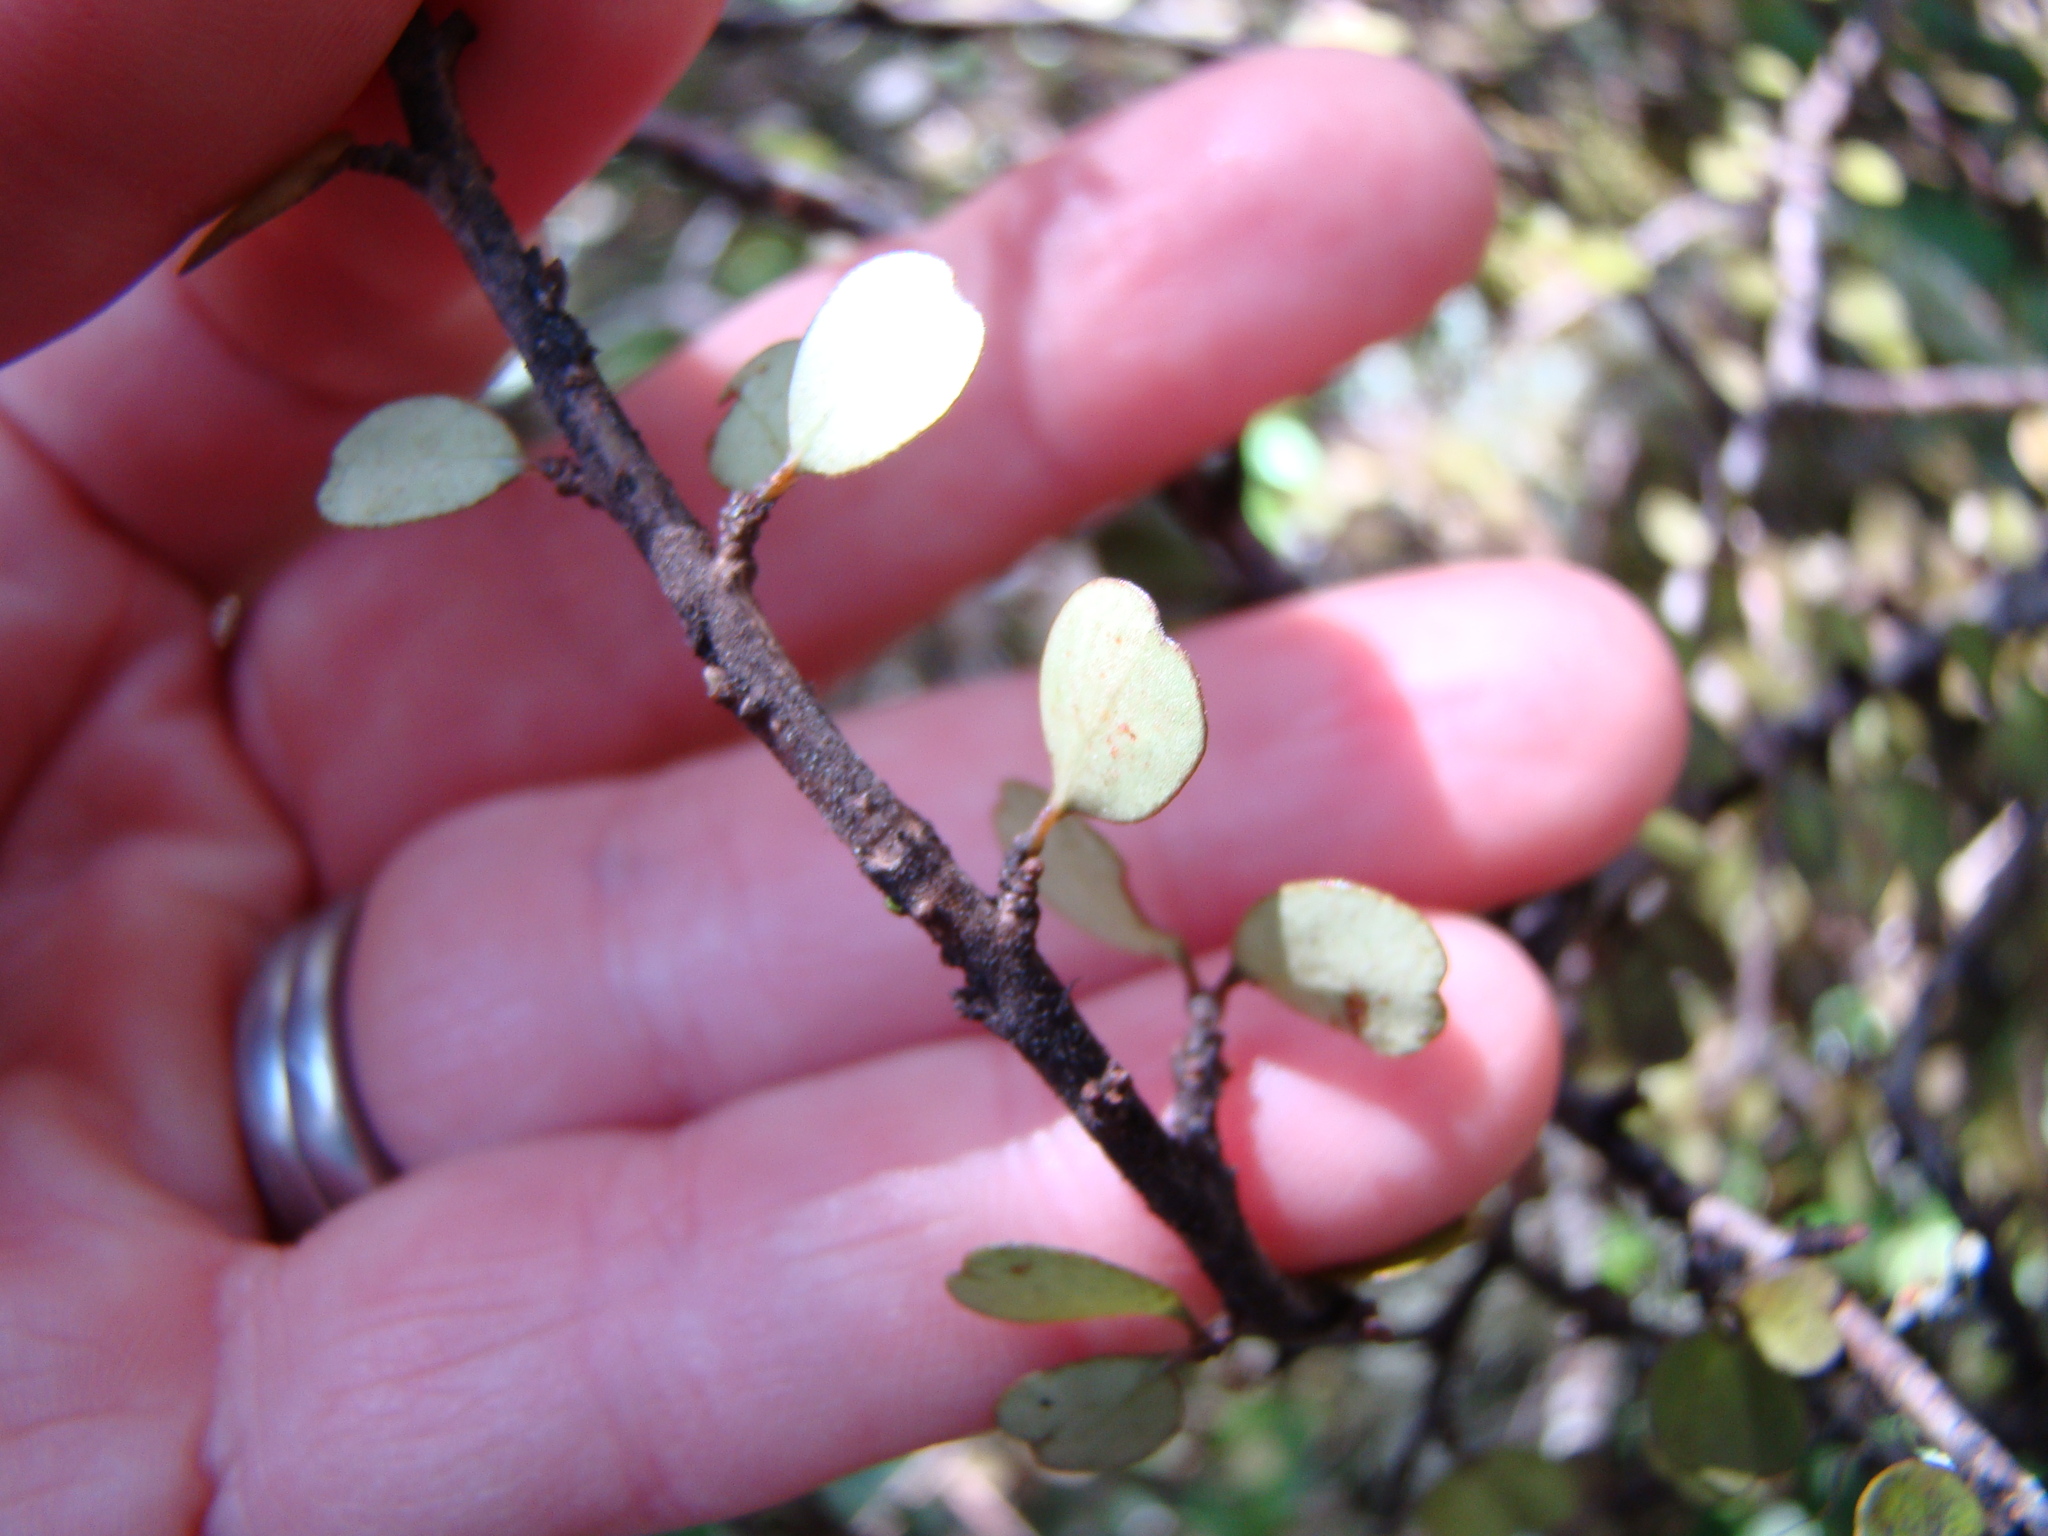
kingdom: Plantae
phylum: Tracheophyta
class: Magnoliopsida
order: Ericales
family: Primulaceae
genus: Myrsine
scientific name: Myrsine divaricata
